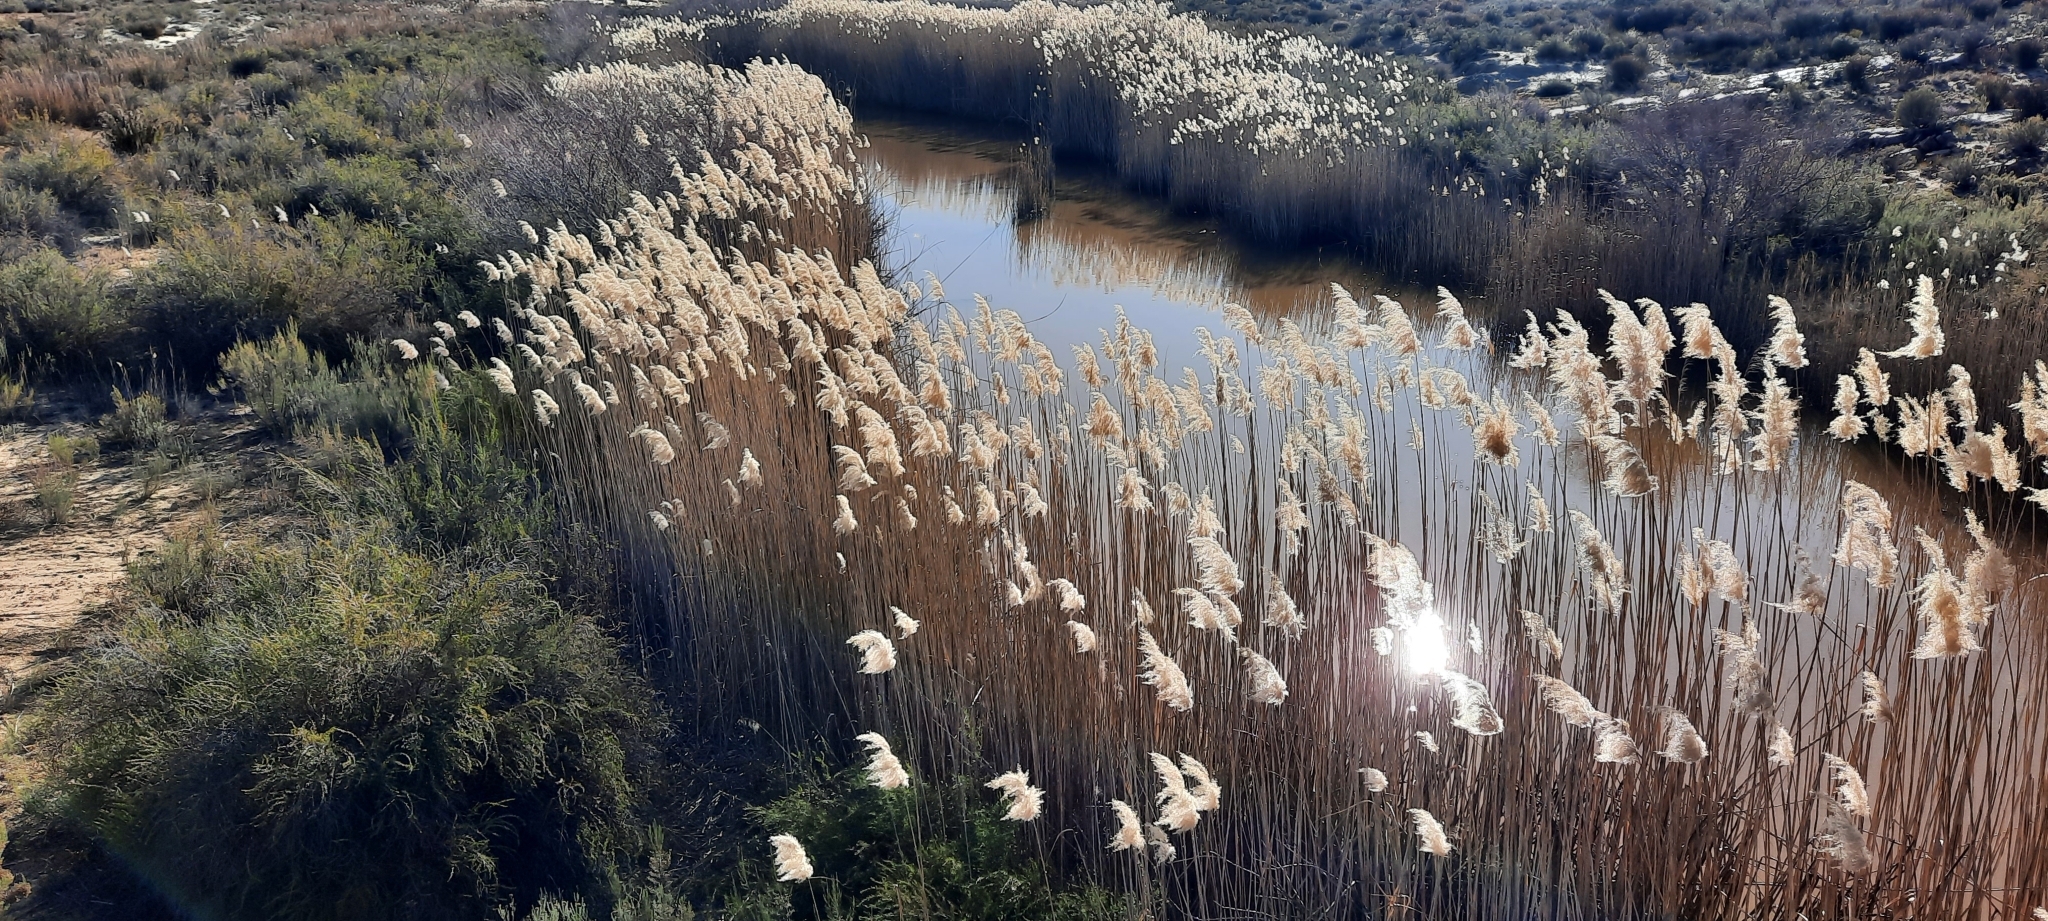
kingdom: Plantae
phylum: Tracheophyta
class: Liliopsida
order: Poales
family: Poaceae
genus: Phragmites
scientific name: Phragmites australis
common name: Common reed
